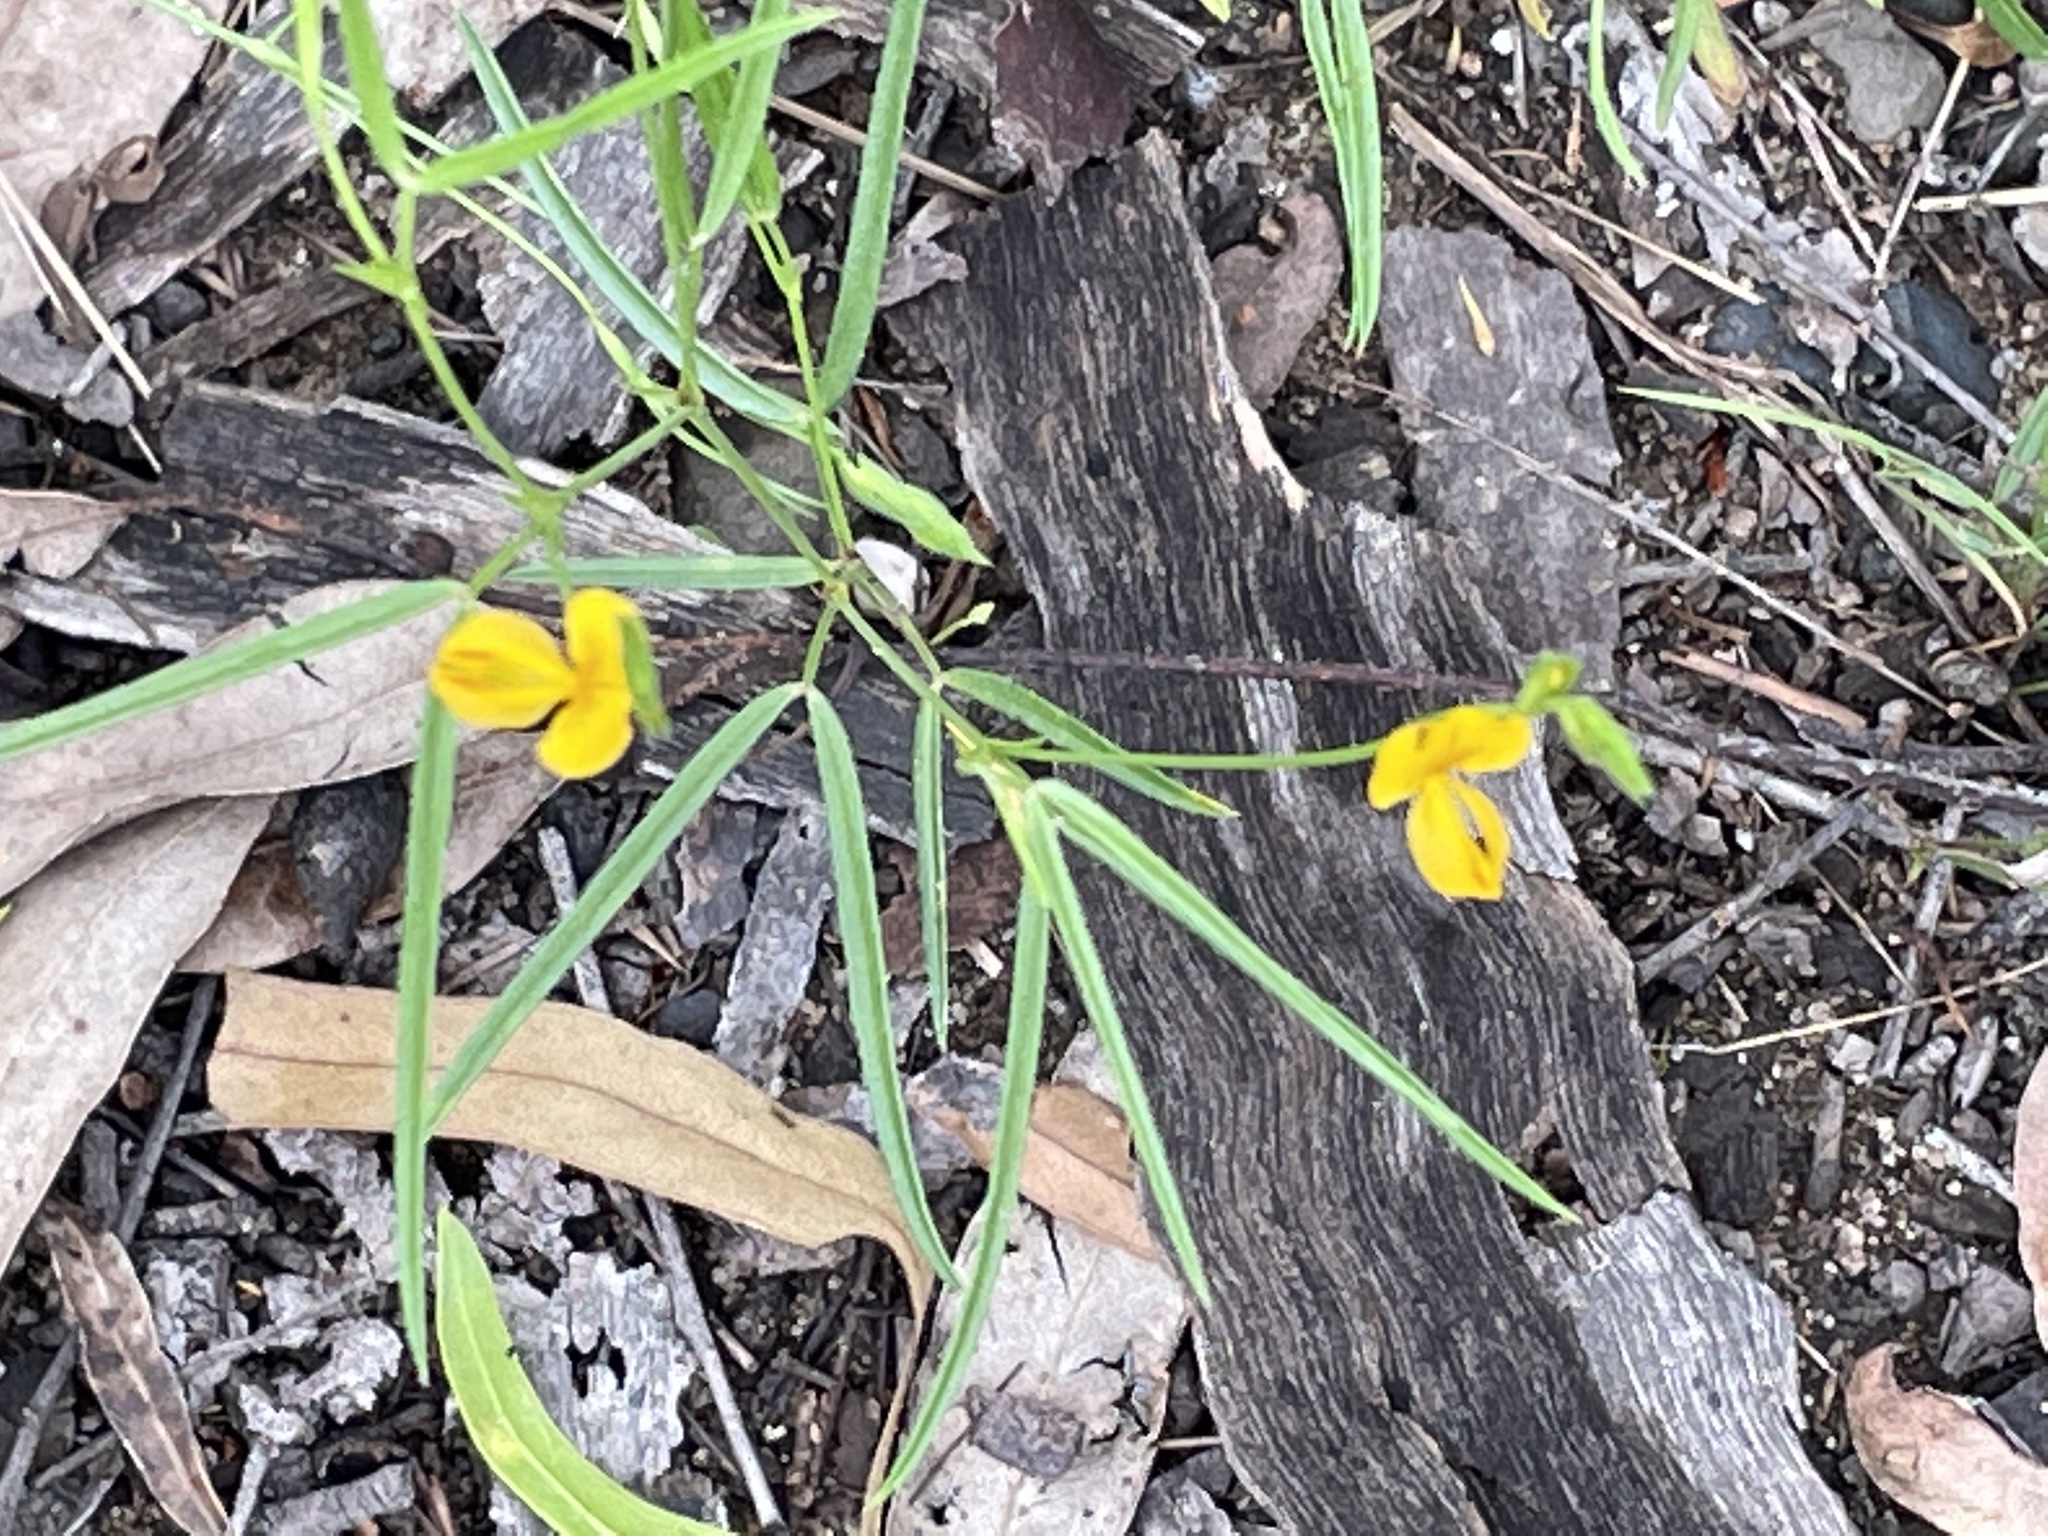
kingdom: Plantae
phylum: Tracheophyta
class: Magnoliopsida
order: Fabales
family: Fabaceae
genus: Zornia
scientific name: Zornia dyctiocarpa
